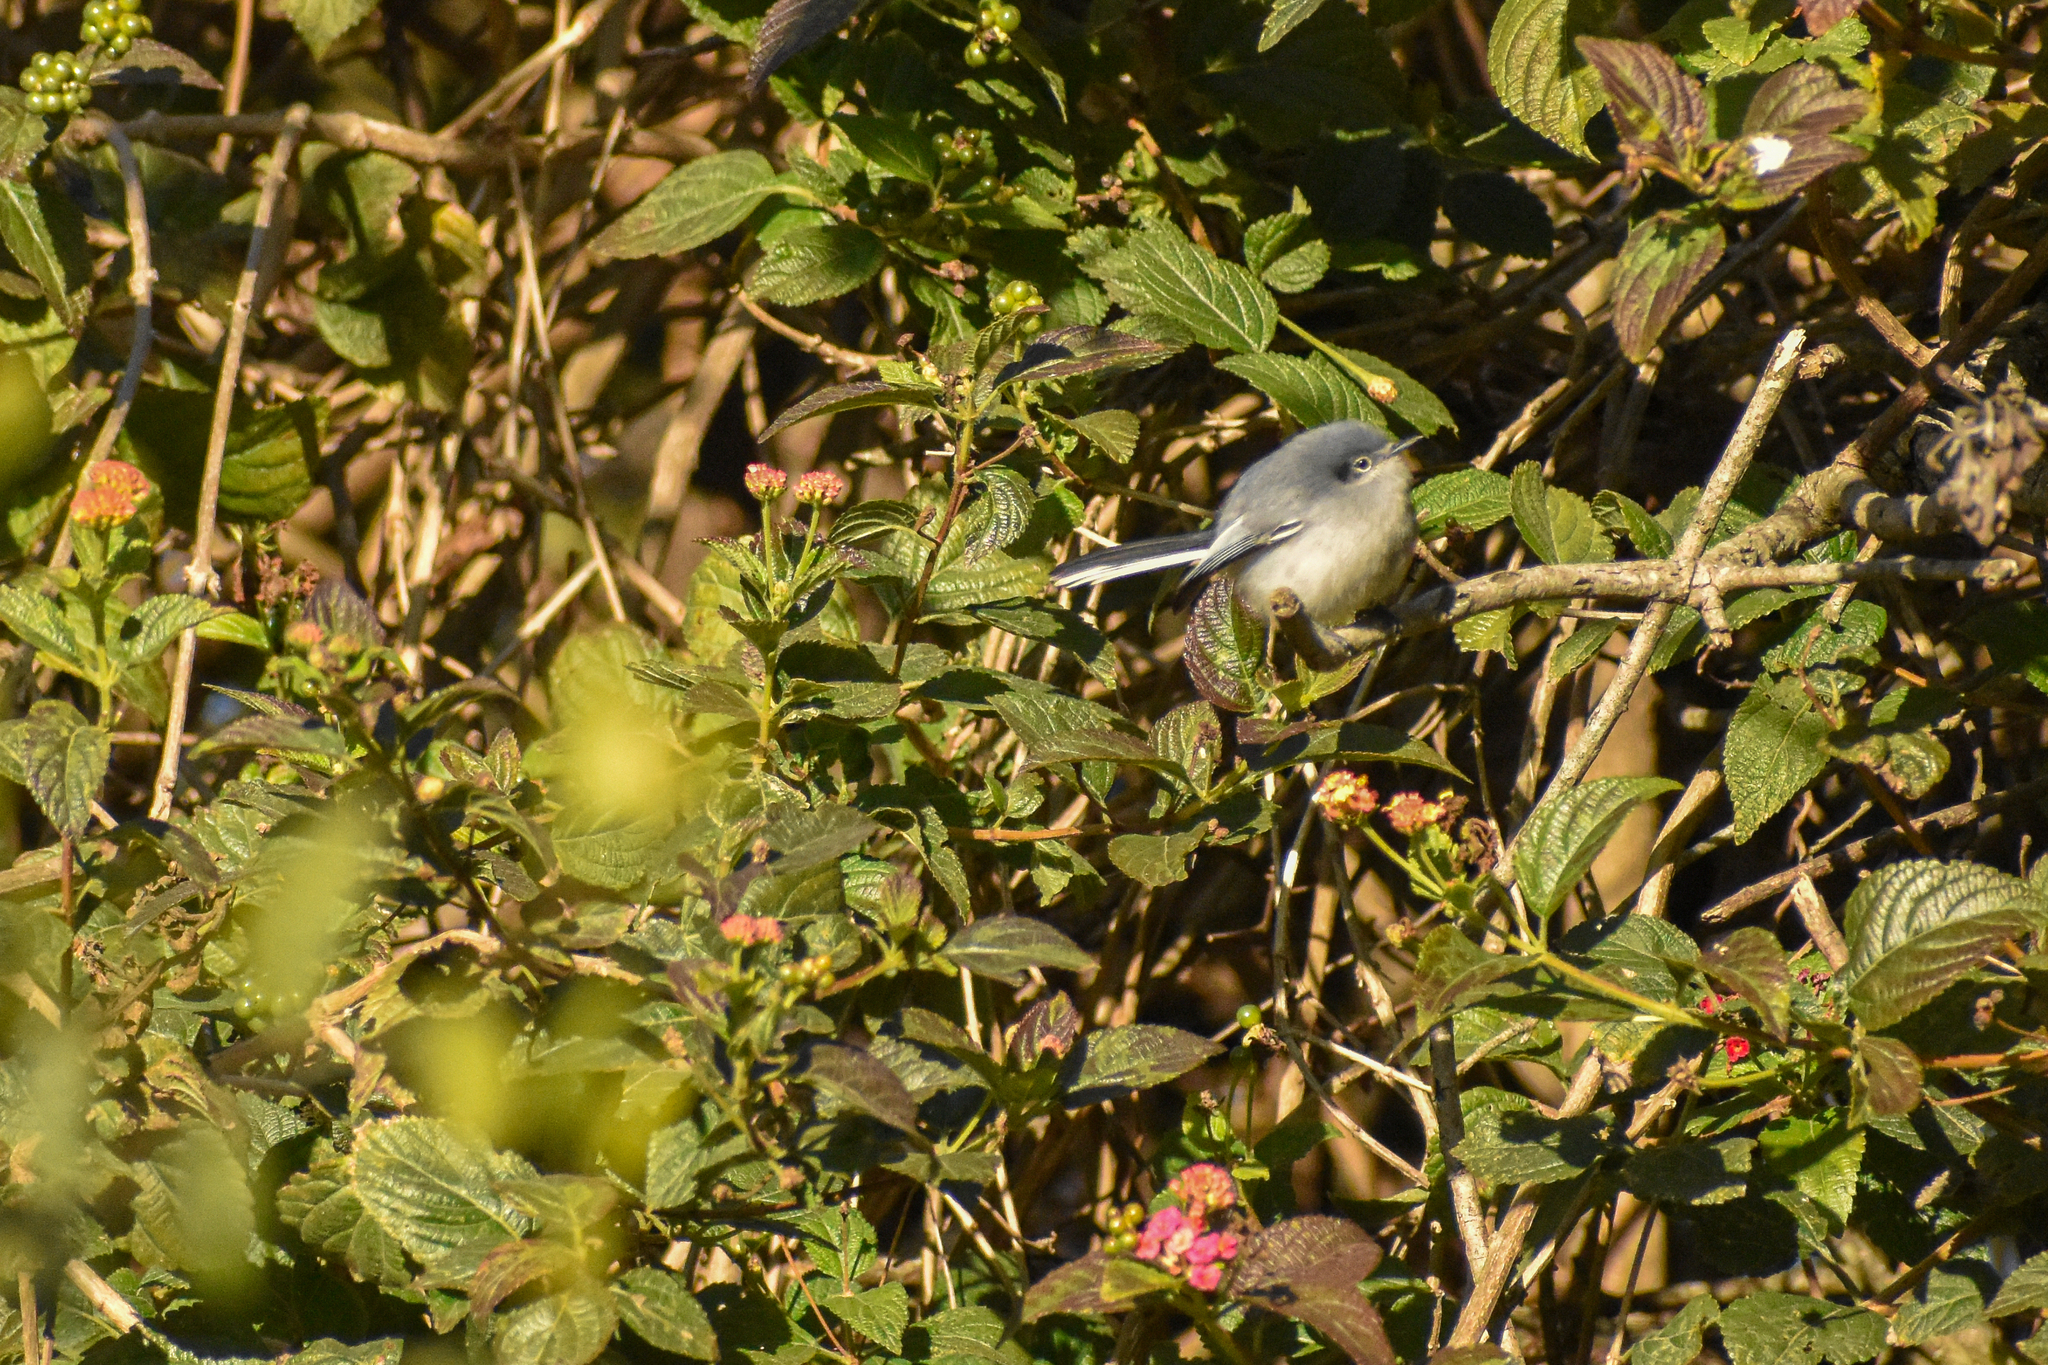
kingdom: Animalia
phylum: Chordata
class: Aves
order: Passeriformes
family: Polioptilidae
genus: Polioptila
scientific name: Polioptila dumicola
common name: Masked gnatcatcher
